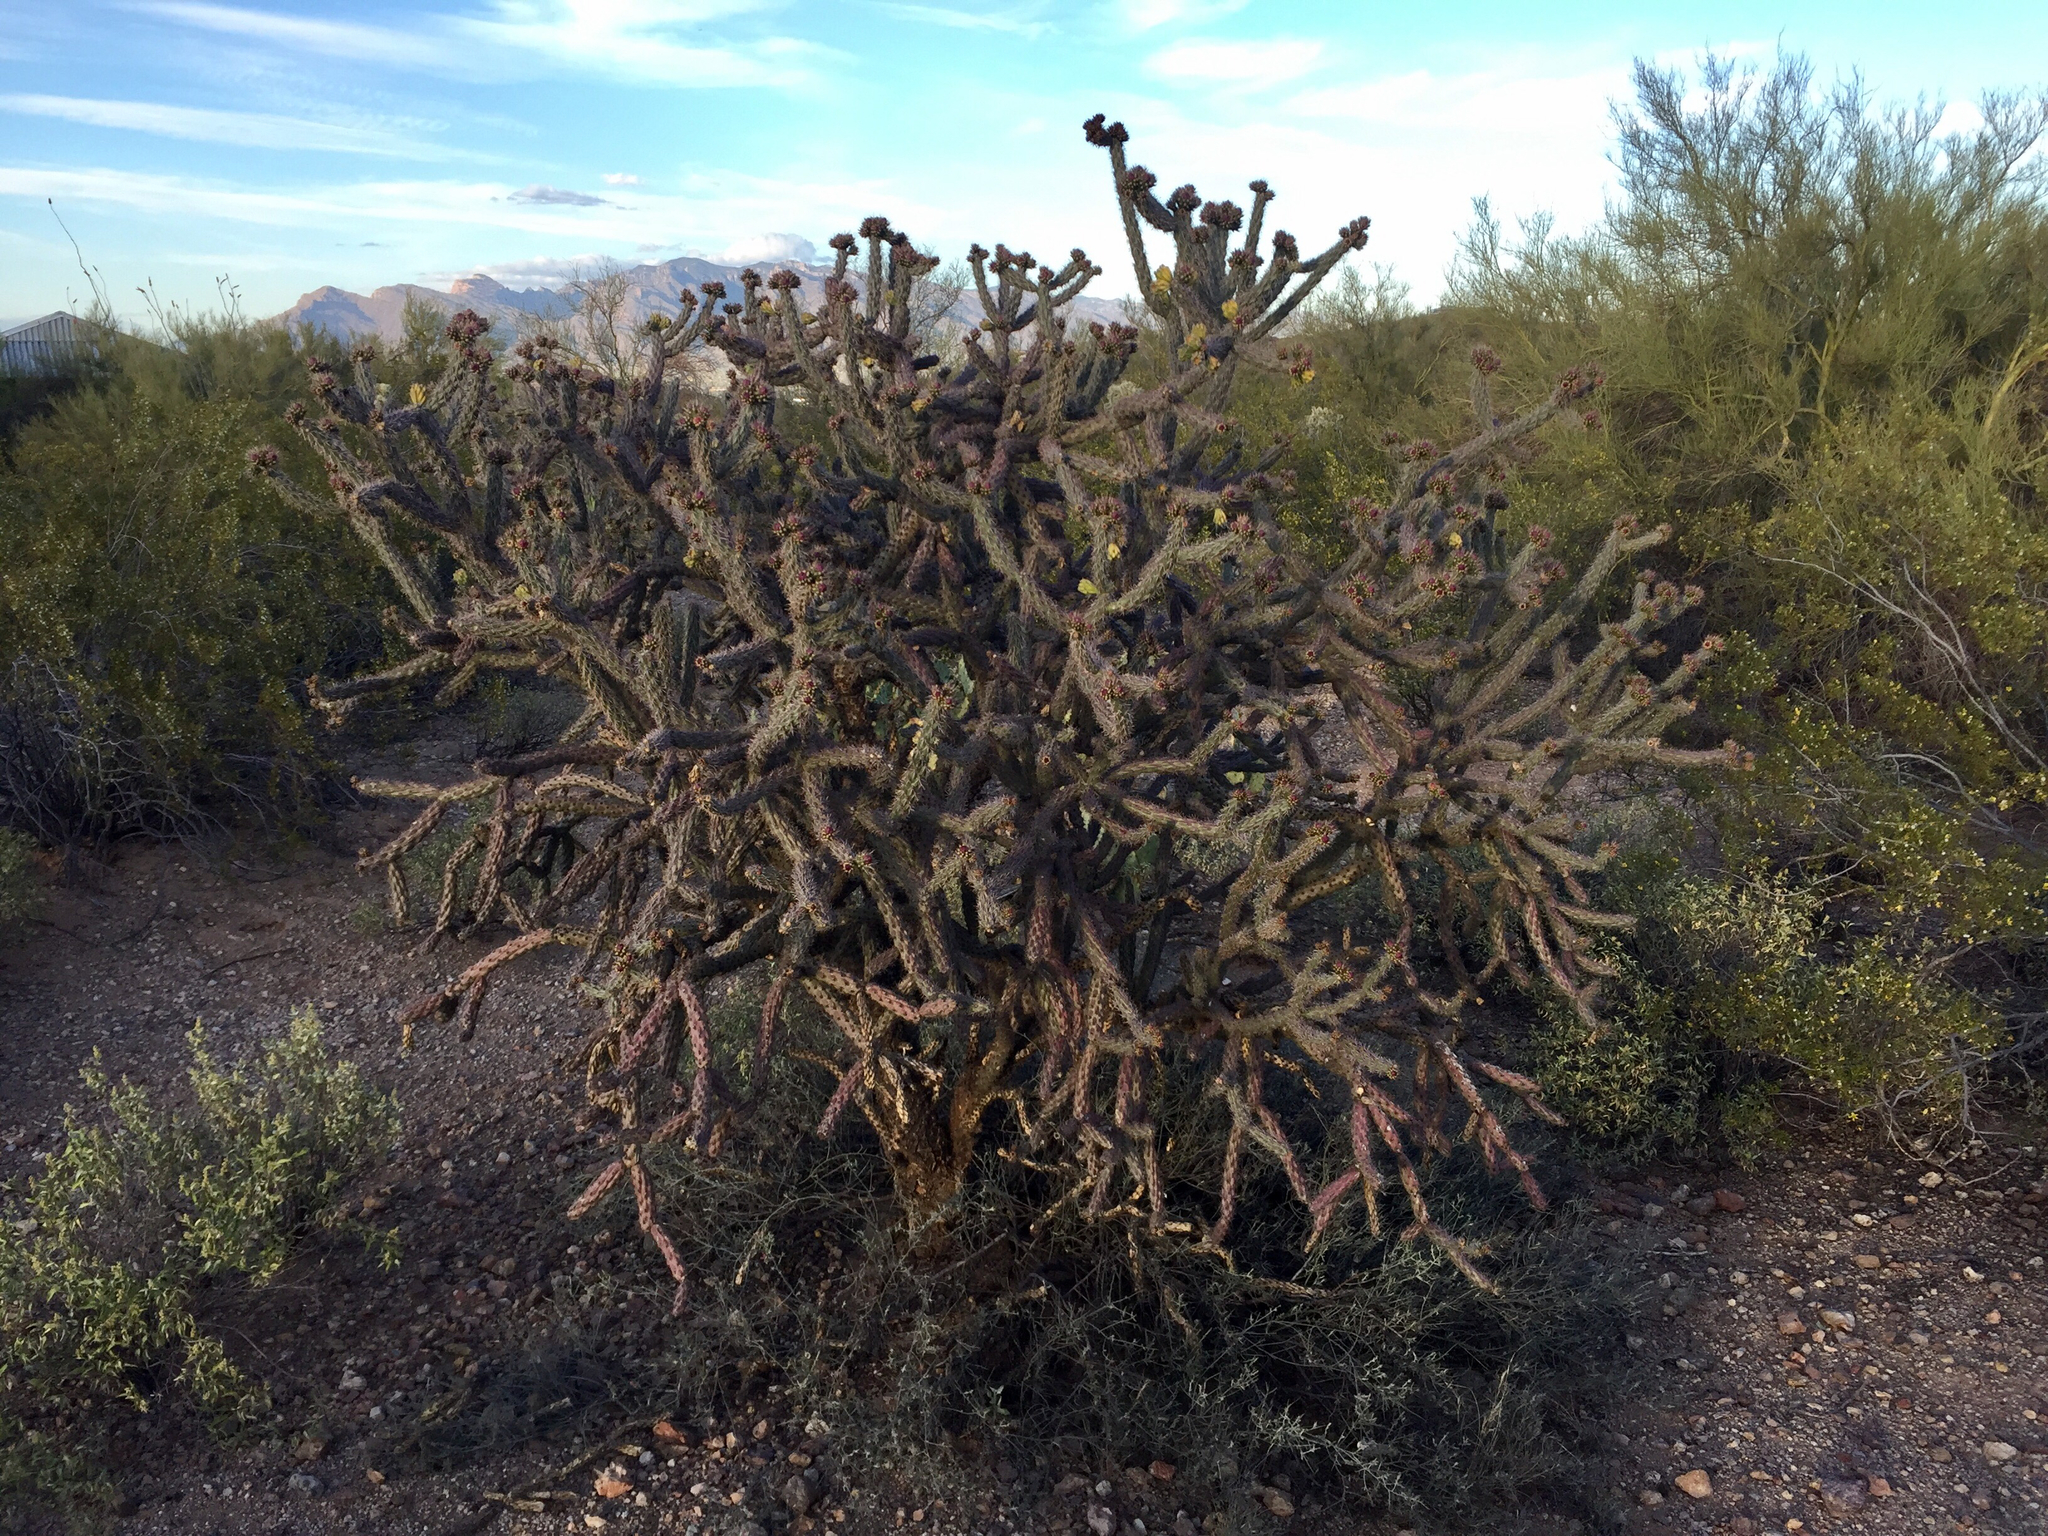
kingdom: Plantae
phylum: Tracheophyta
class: Magnoliopsida
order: Caryophyllales
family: Cactaceae
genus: Cylindropuntia
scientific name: Cylindropuntia acanthocarpa
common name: Buckhorn cholla
